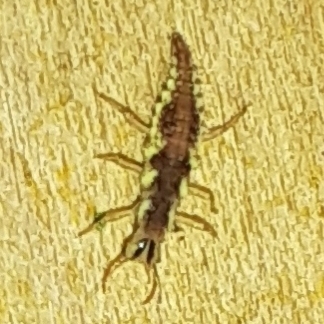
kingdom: Animalia
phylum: Arthropoda
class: Insecta
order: Neuroptera
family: Chrysopidae
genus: Chrysoperla
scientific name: Chrysoperla rufilabris
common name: Red-lipped green lacewing
